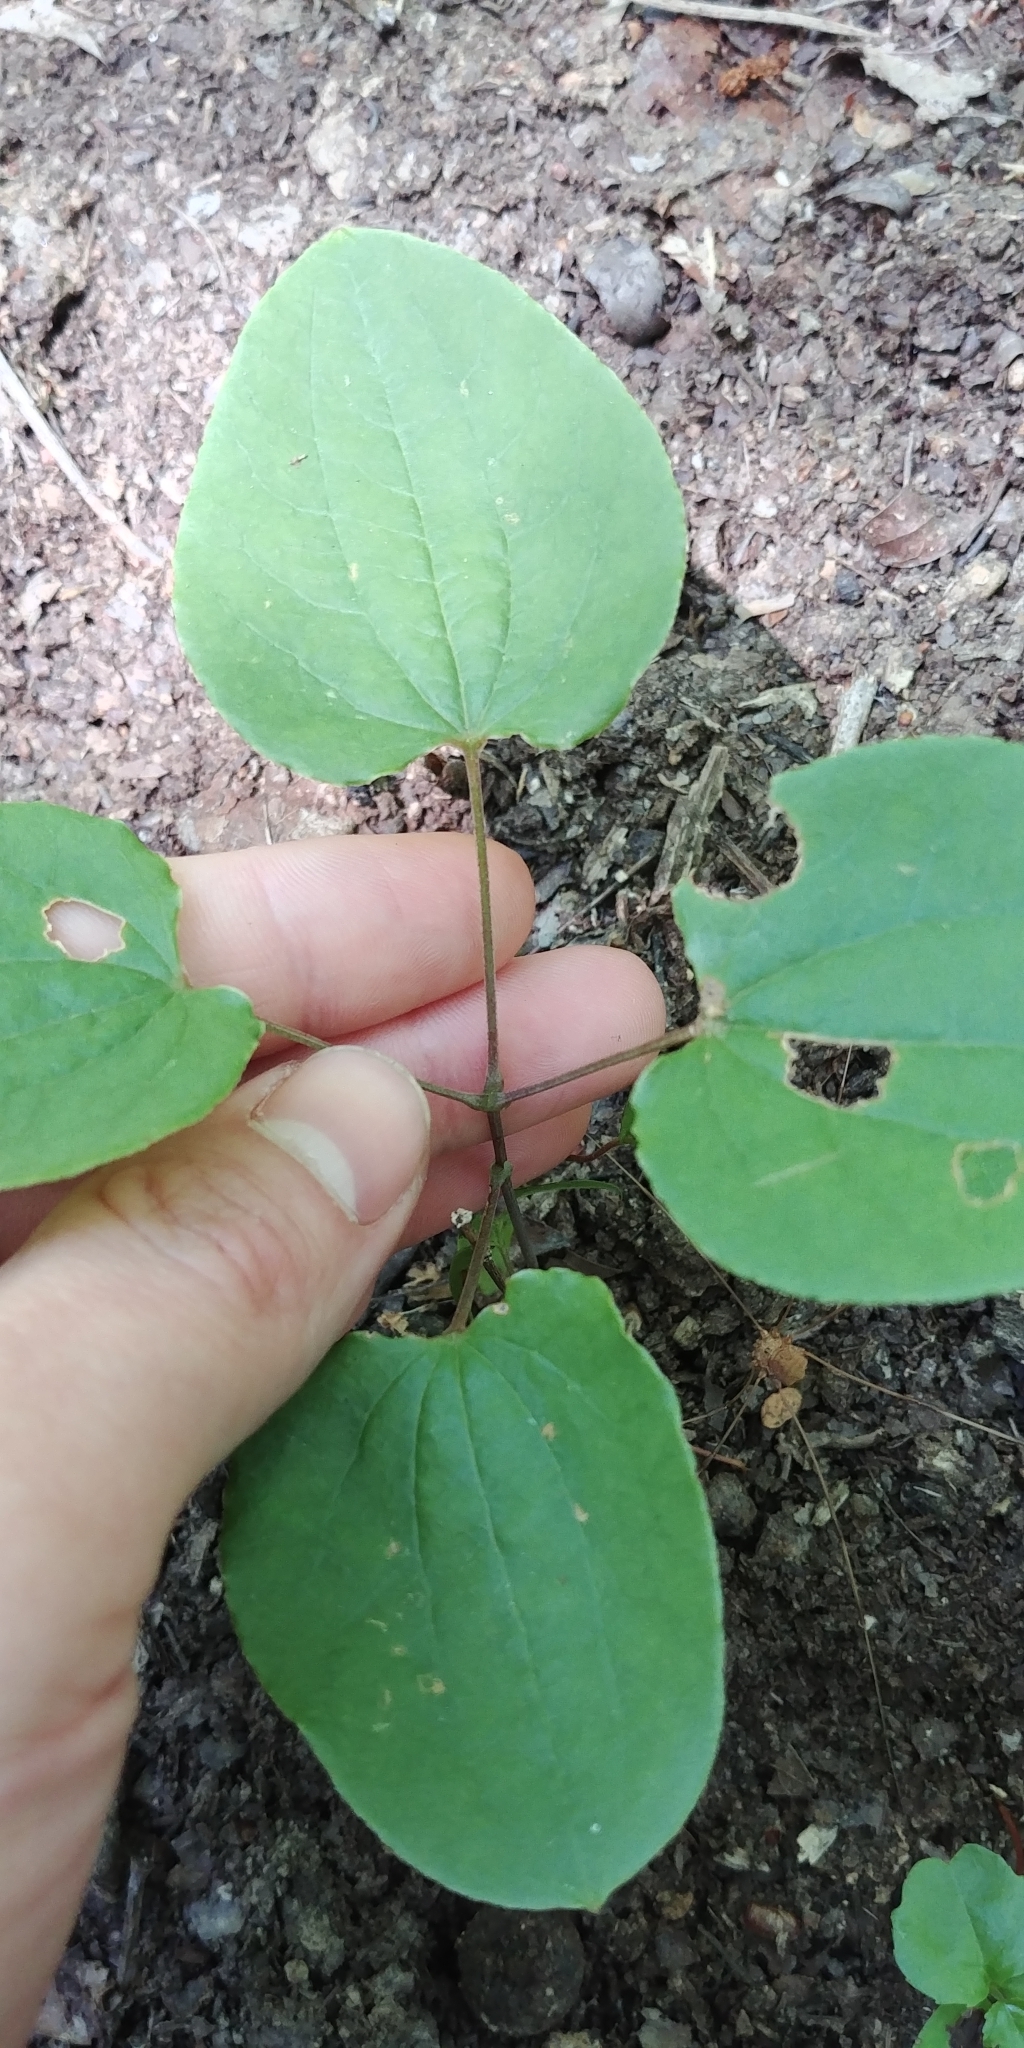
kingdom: Plantae
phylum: Tracheophyta
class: Liliopsida
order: Liliales
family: Smilacaceae
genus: Smilax
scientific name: Smilax herbacea
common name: Jacob's-ladder
